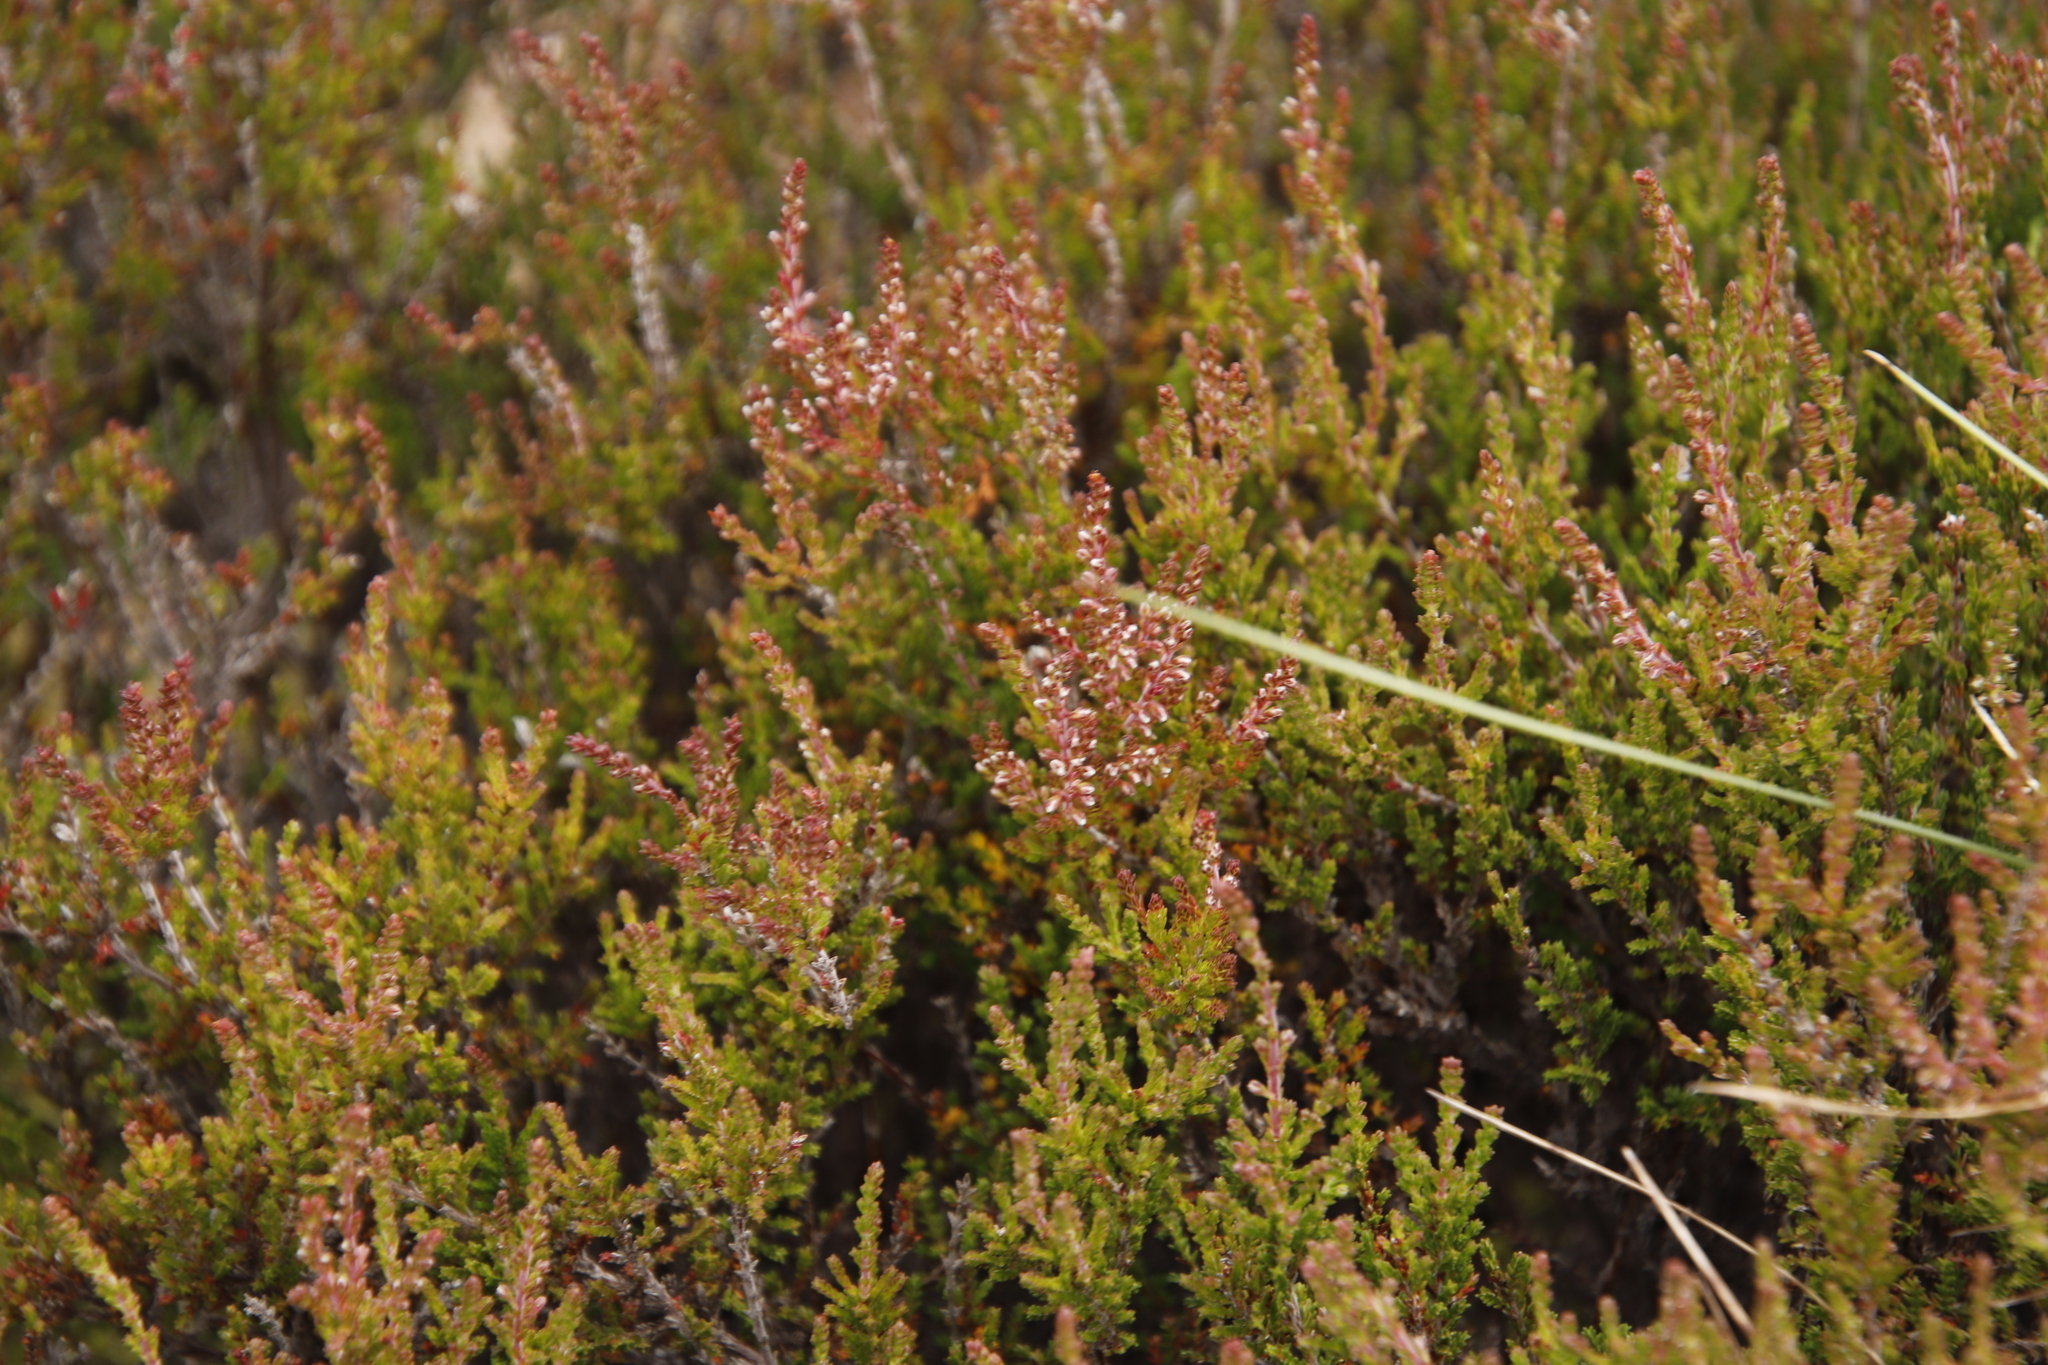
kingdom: Plantae
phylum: Tracheophyta
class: Magnoliopsida
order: Ericales
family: Ericaceae
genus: Calluna
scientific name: Calluna vulgaris
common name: Heather
